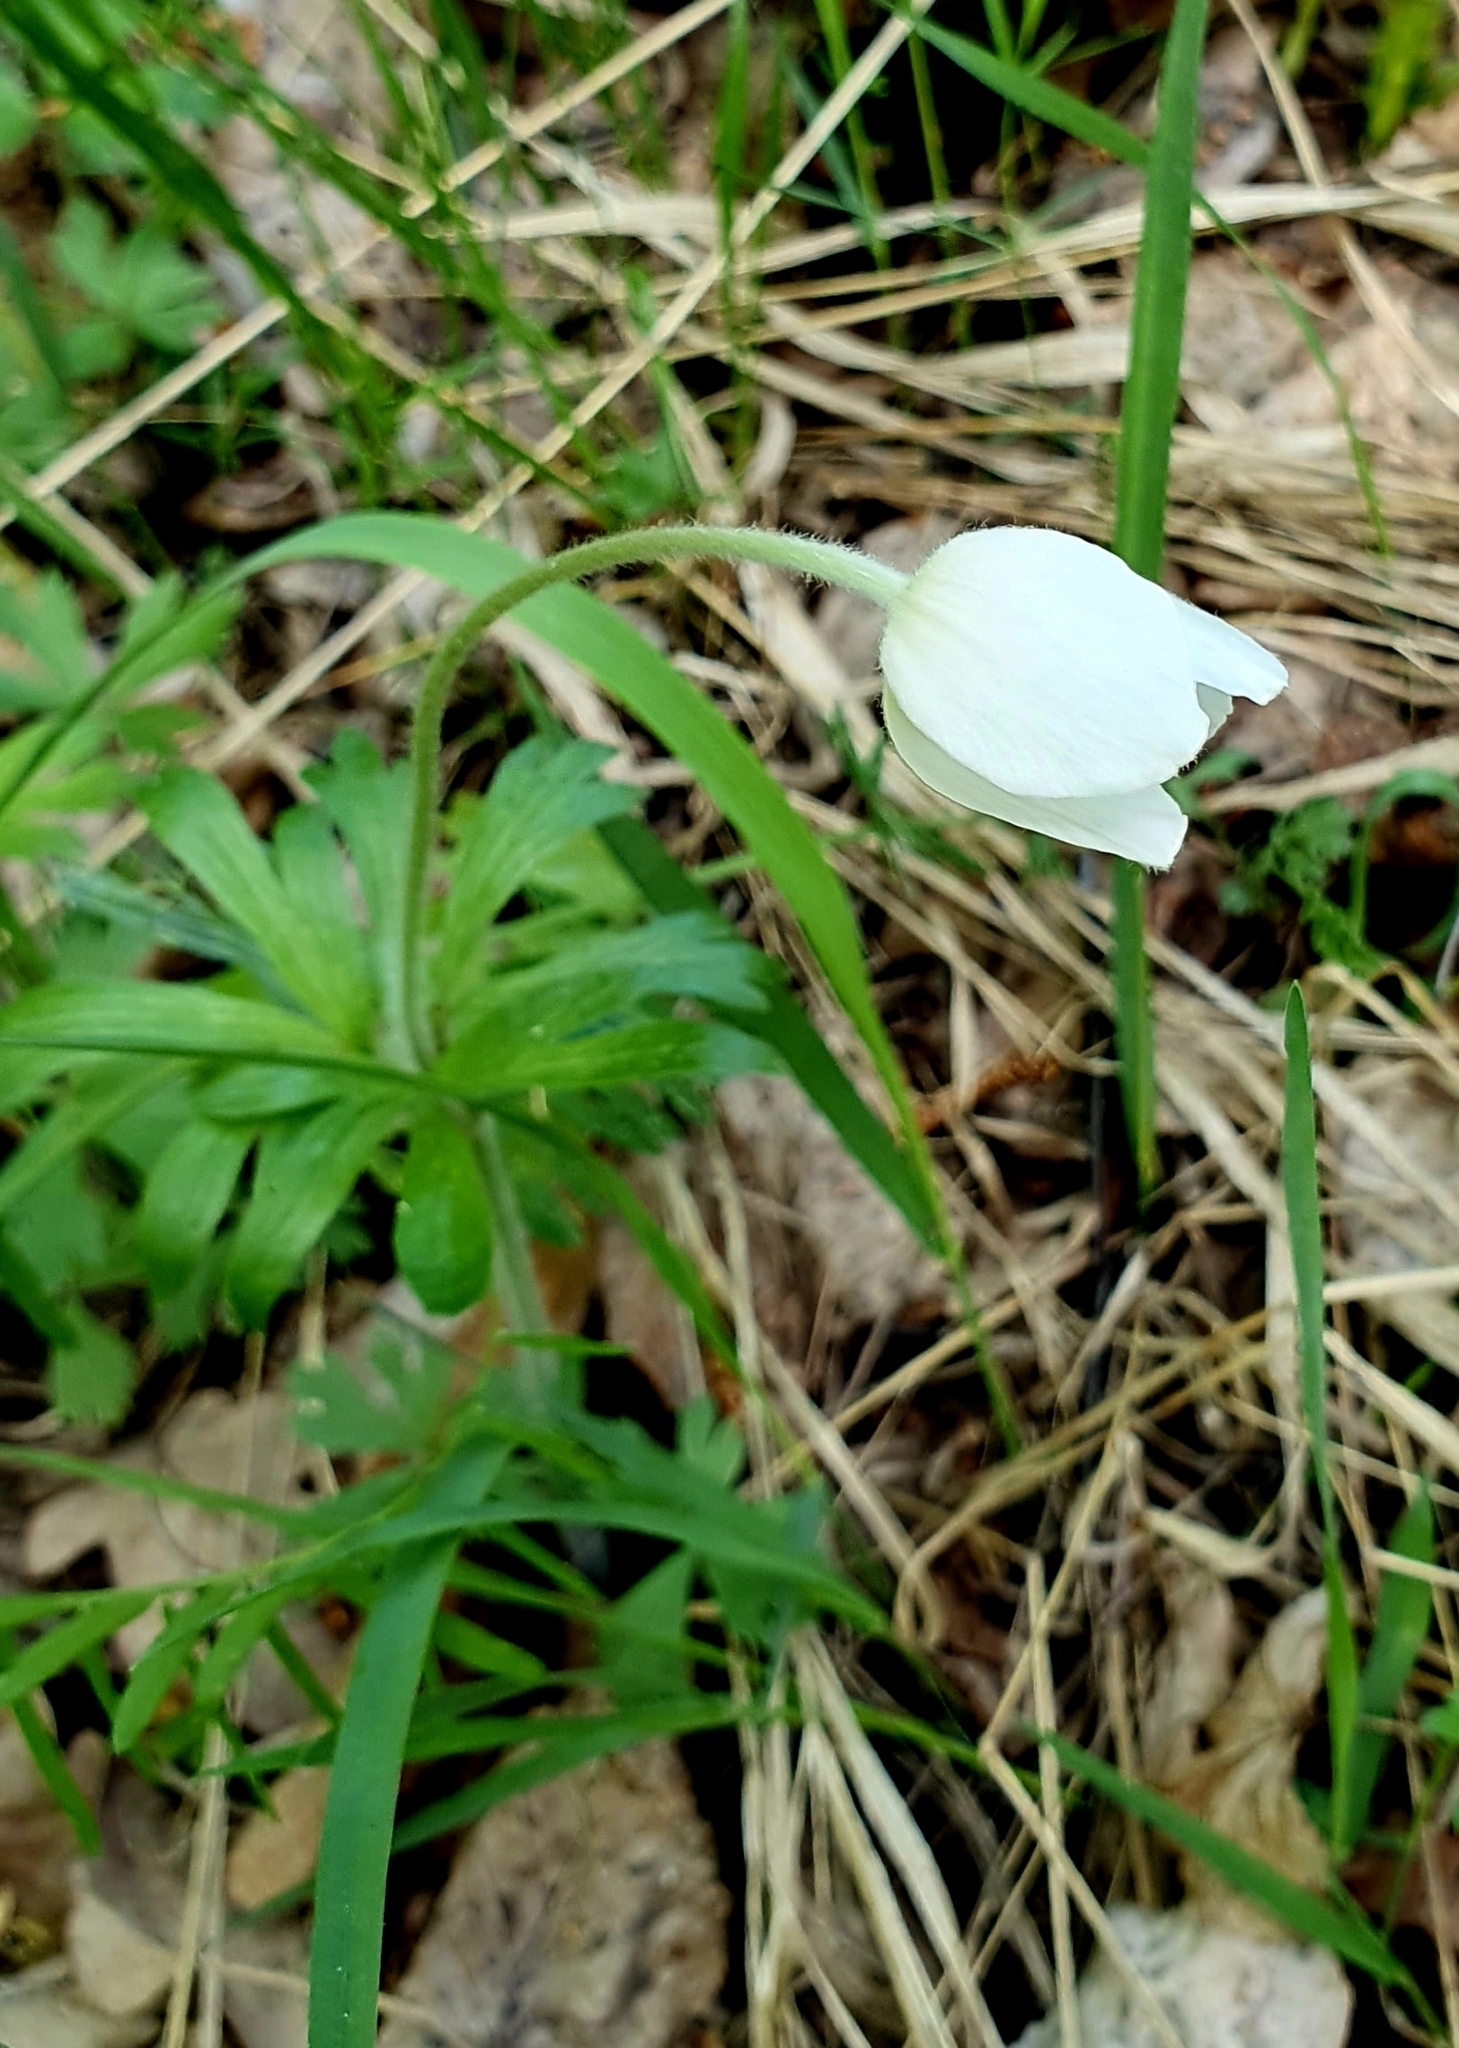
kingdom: Plantae
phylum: Tracheophyta
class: Magnoliopsida
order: Ranunculales
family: Ranunculaceae
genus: Anemone
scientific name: Anemone sylvestris
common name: Snowdrop anemone
